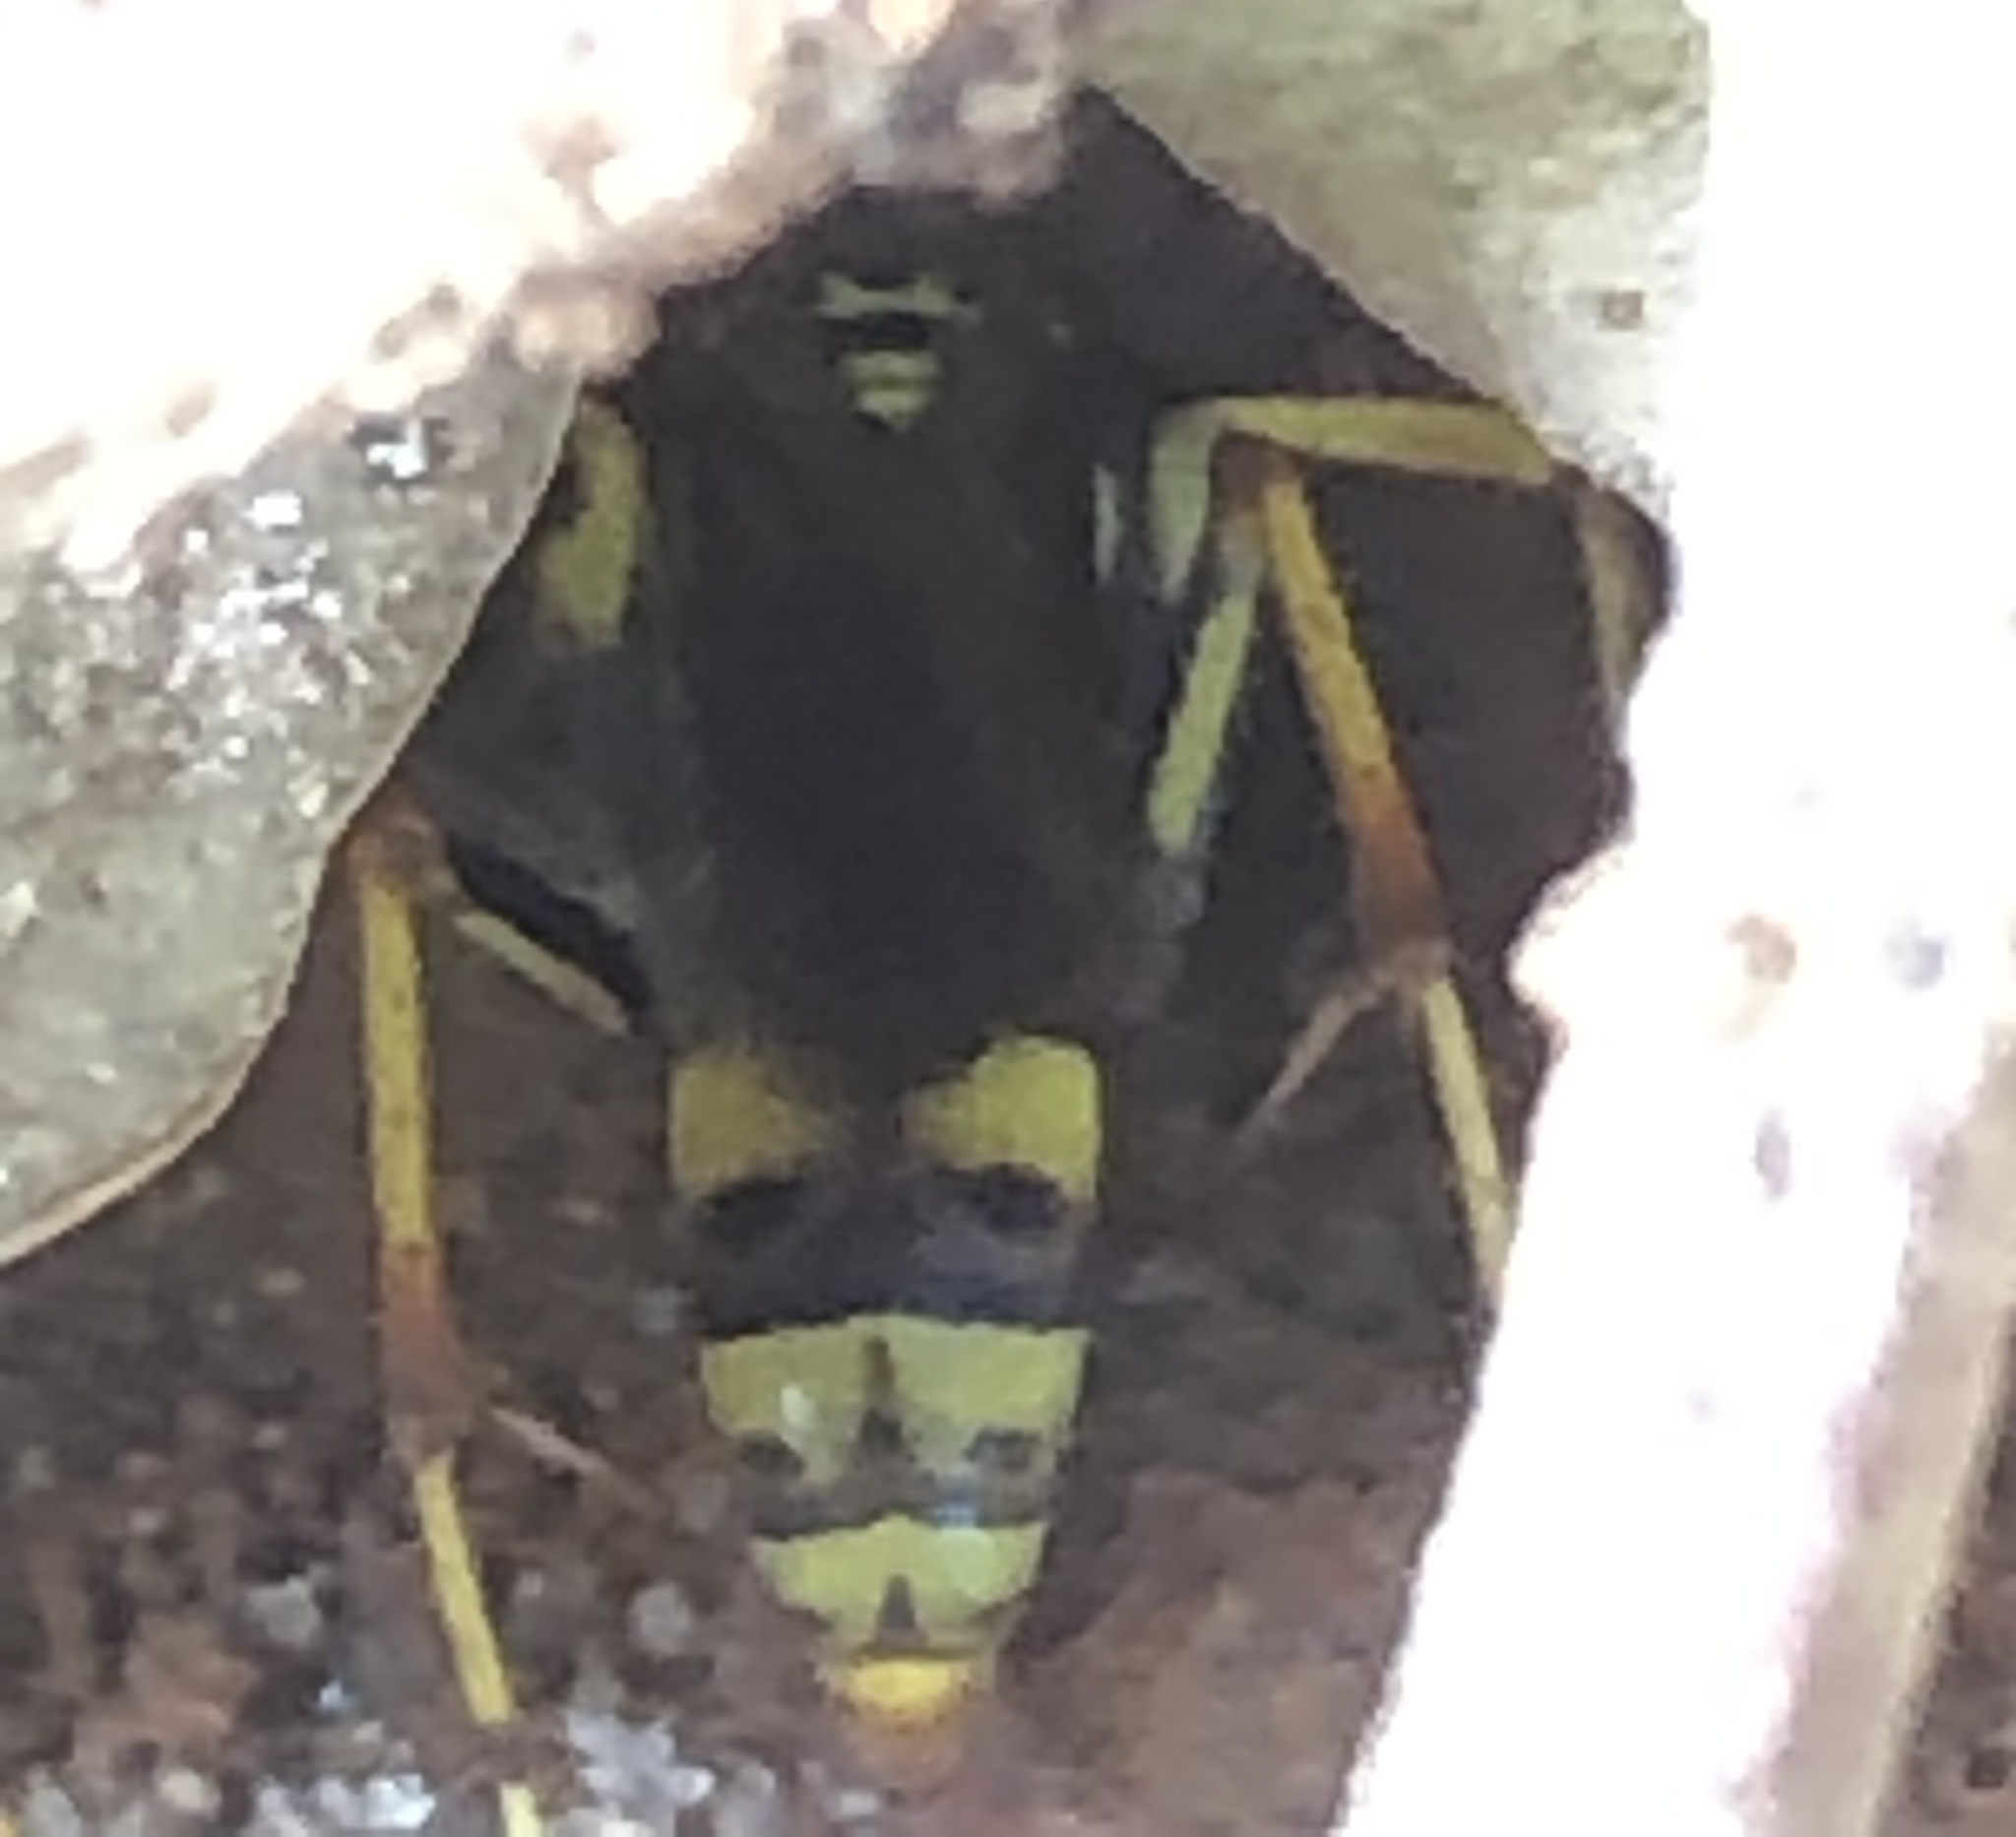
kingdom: Animalia
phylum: Arthropoda
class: Insecta
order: Hymenoptera
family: Pompilidae
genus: Poecilopompilus
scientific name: Poecilopompilus interruptus
